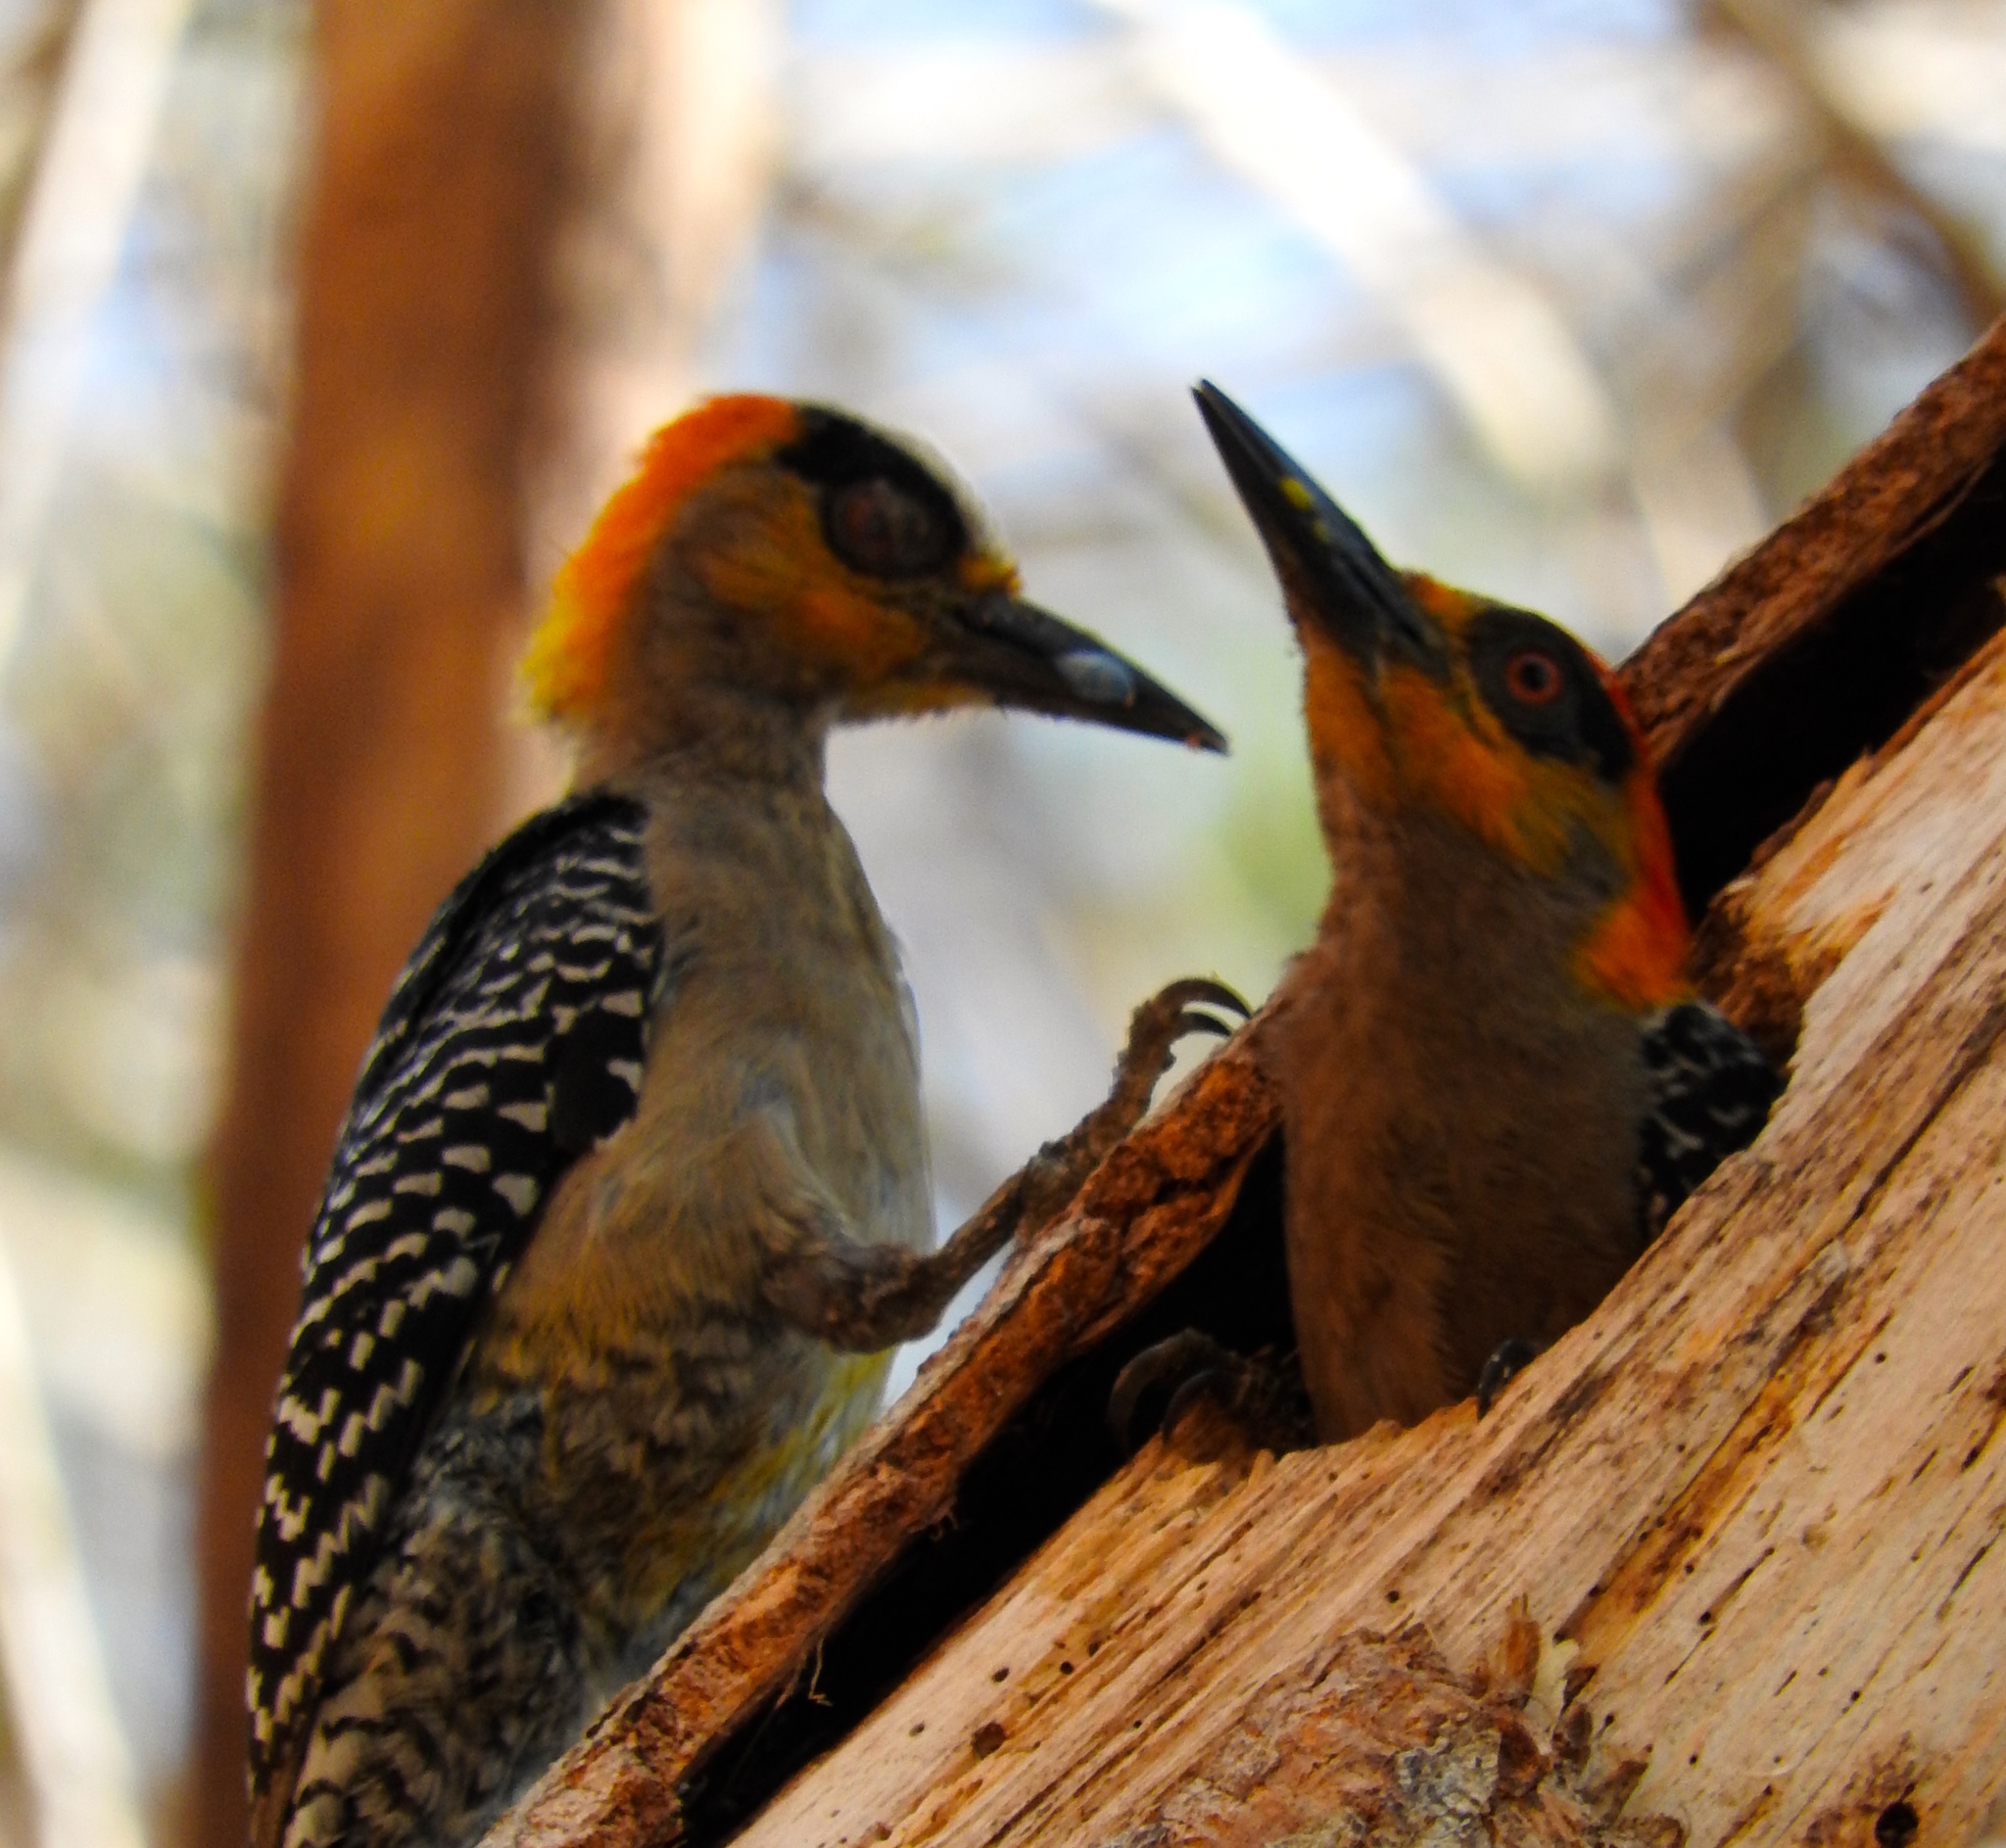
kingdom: Animalia
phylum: Chordata
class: Aves
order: Piciformes
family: Picidae
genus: Melanerpes
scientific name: Melanerpes chrysogenys
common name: Golden-cheeked woodpecker
